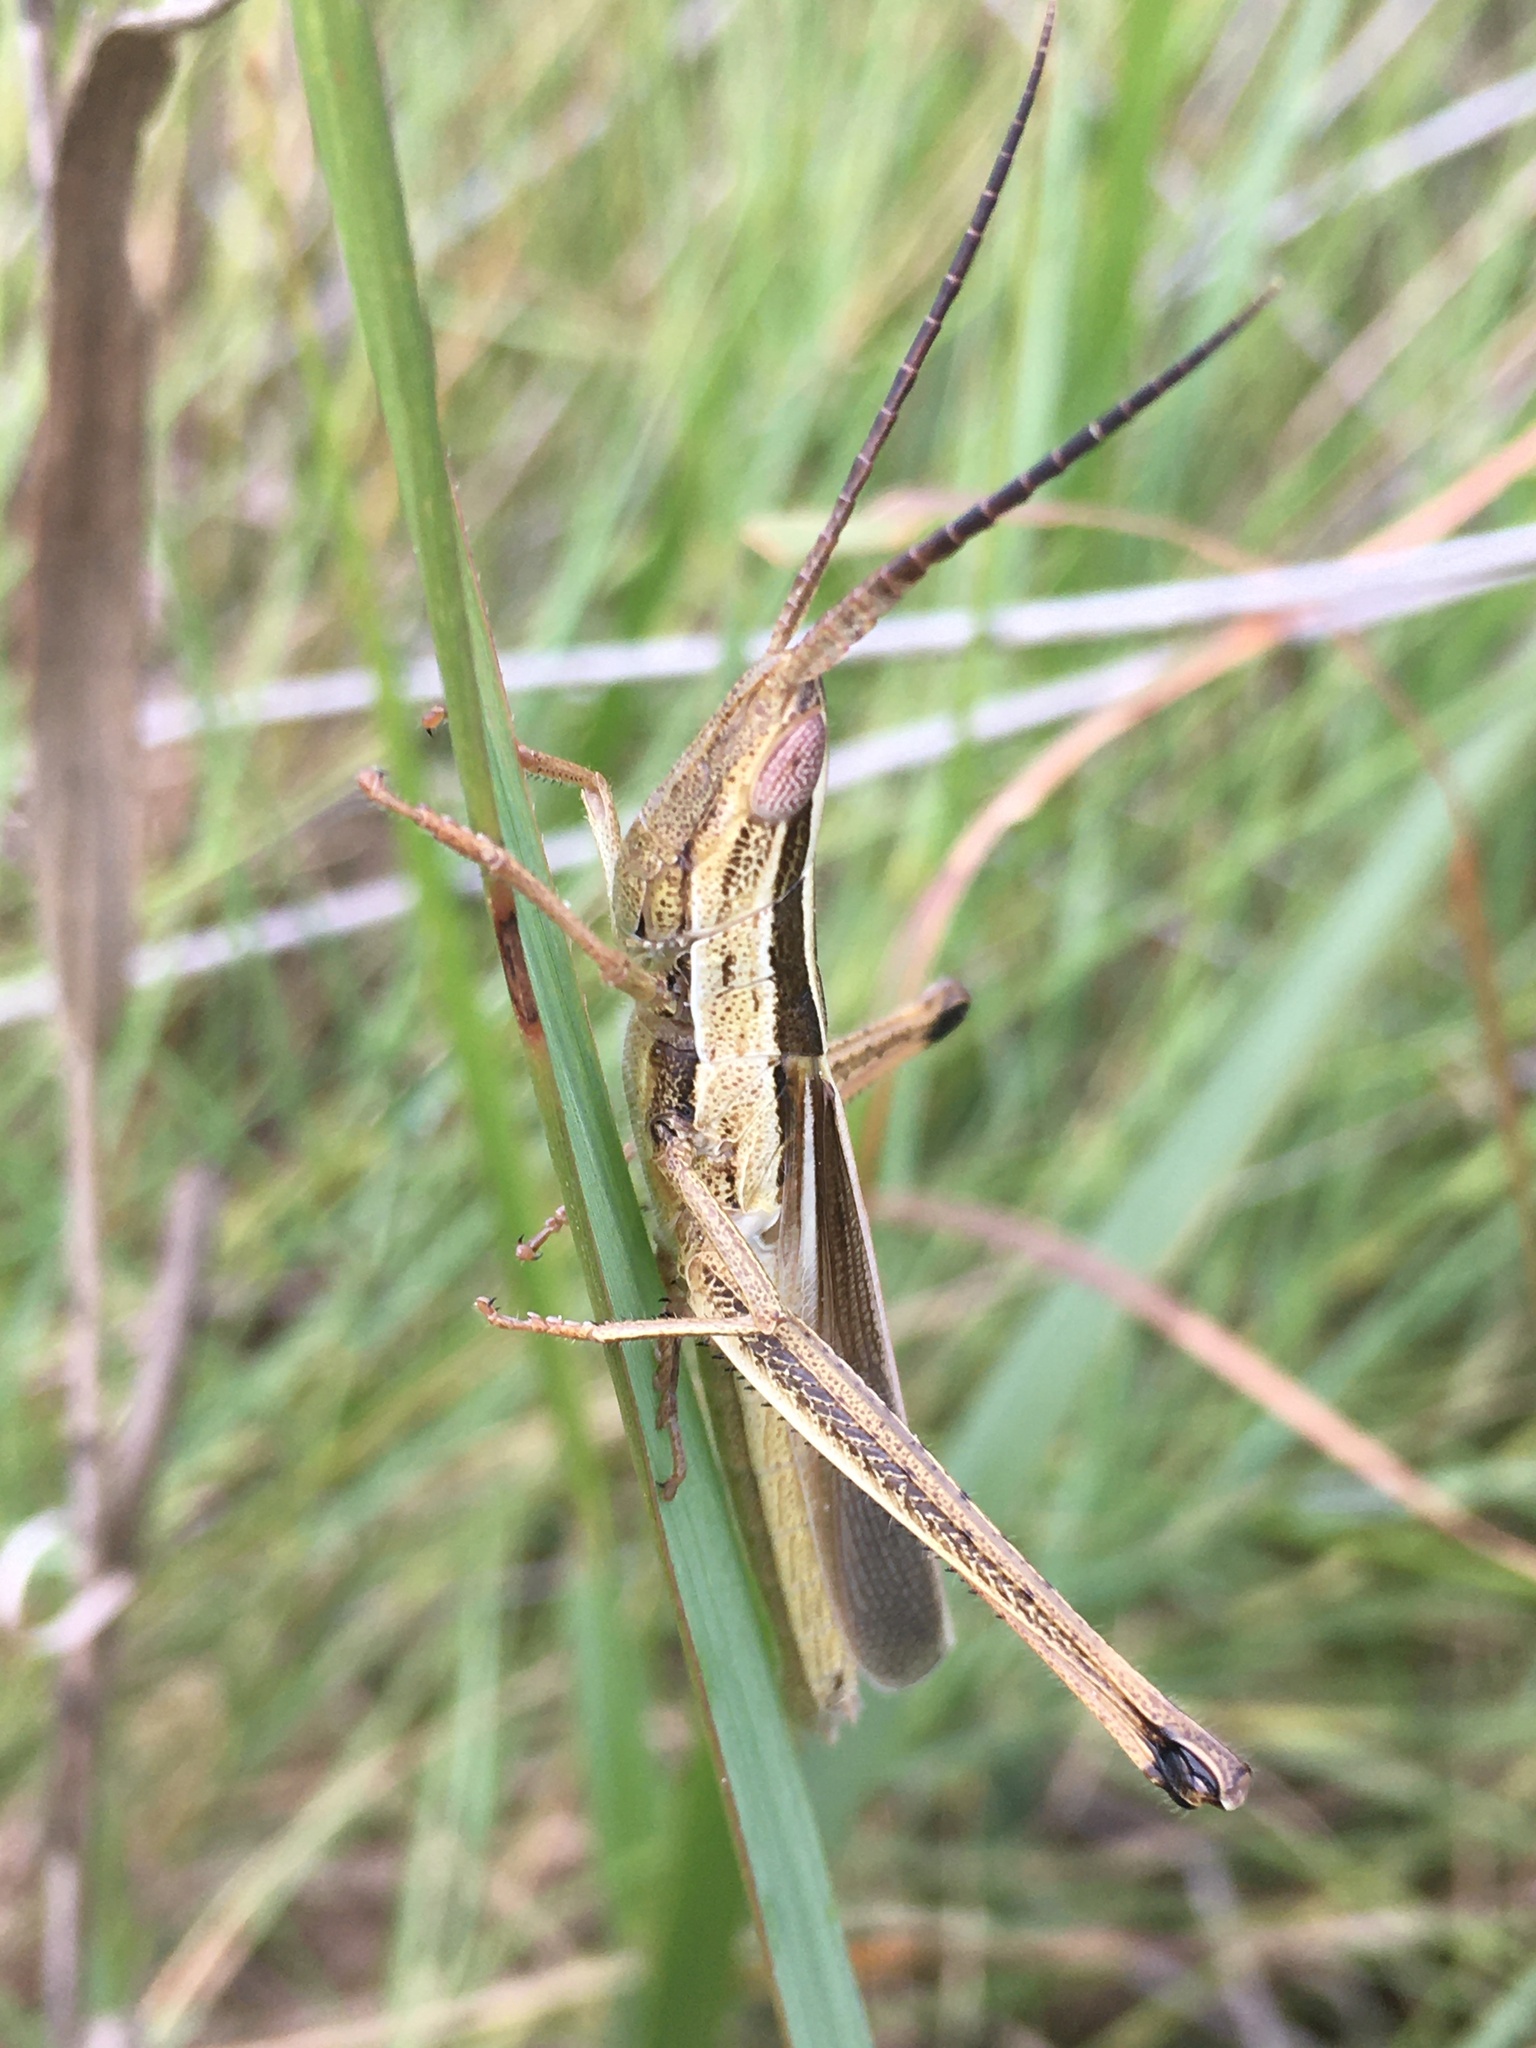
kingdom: Animalia
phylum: Arthropoda
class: Insecta
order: Orthoptera
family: Acrididae
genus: Mermiria
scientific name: Mermiria intertexta
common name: Eastern mermiria grasshopper
